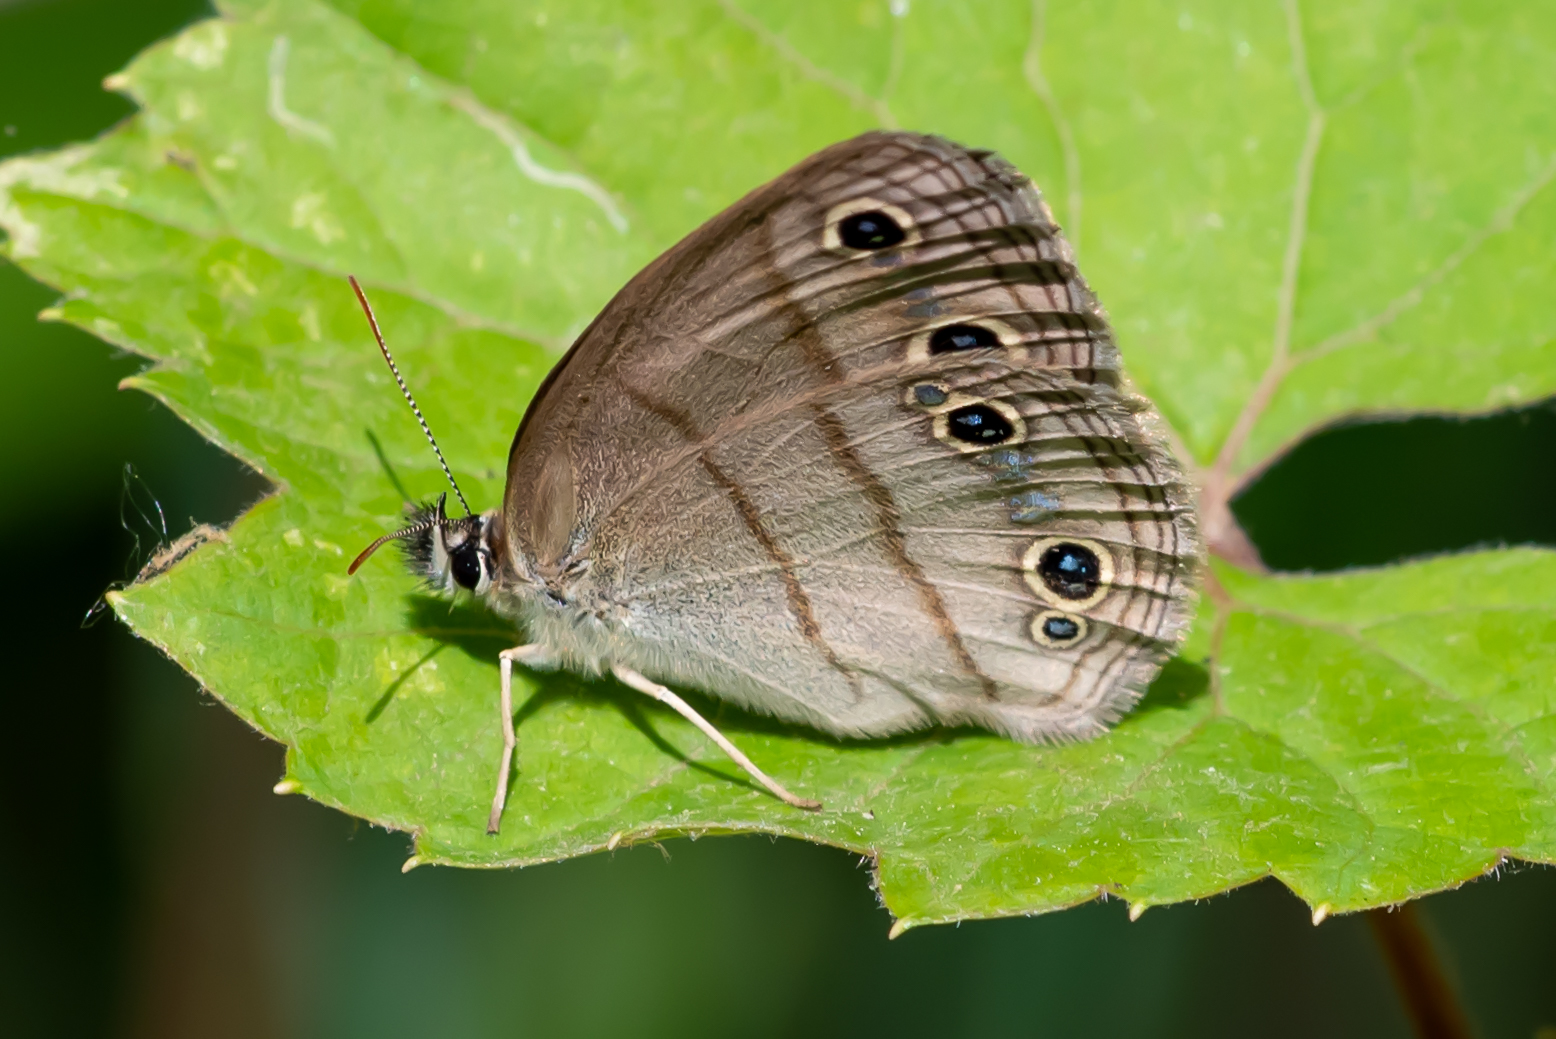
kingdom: Animalia
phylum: Arthropoda
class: Insecta
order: Lepidoptera
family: Nymphalidae
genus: Euptychia
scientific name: Euptychia cymela
